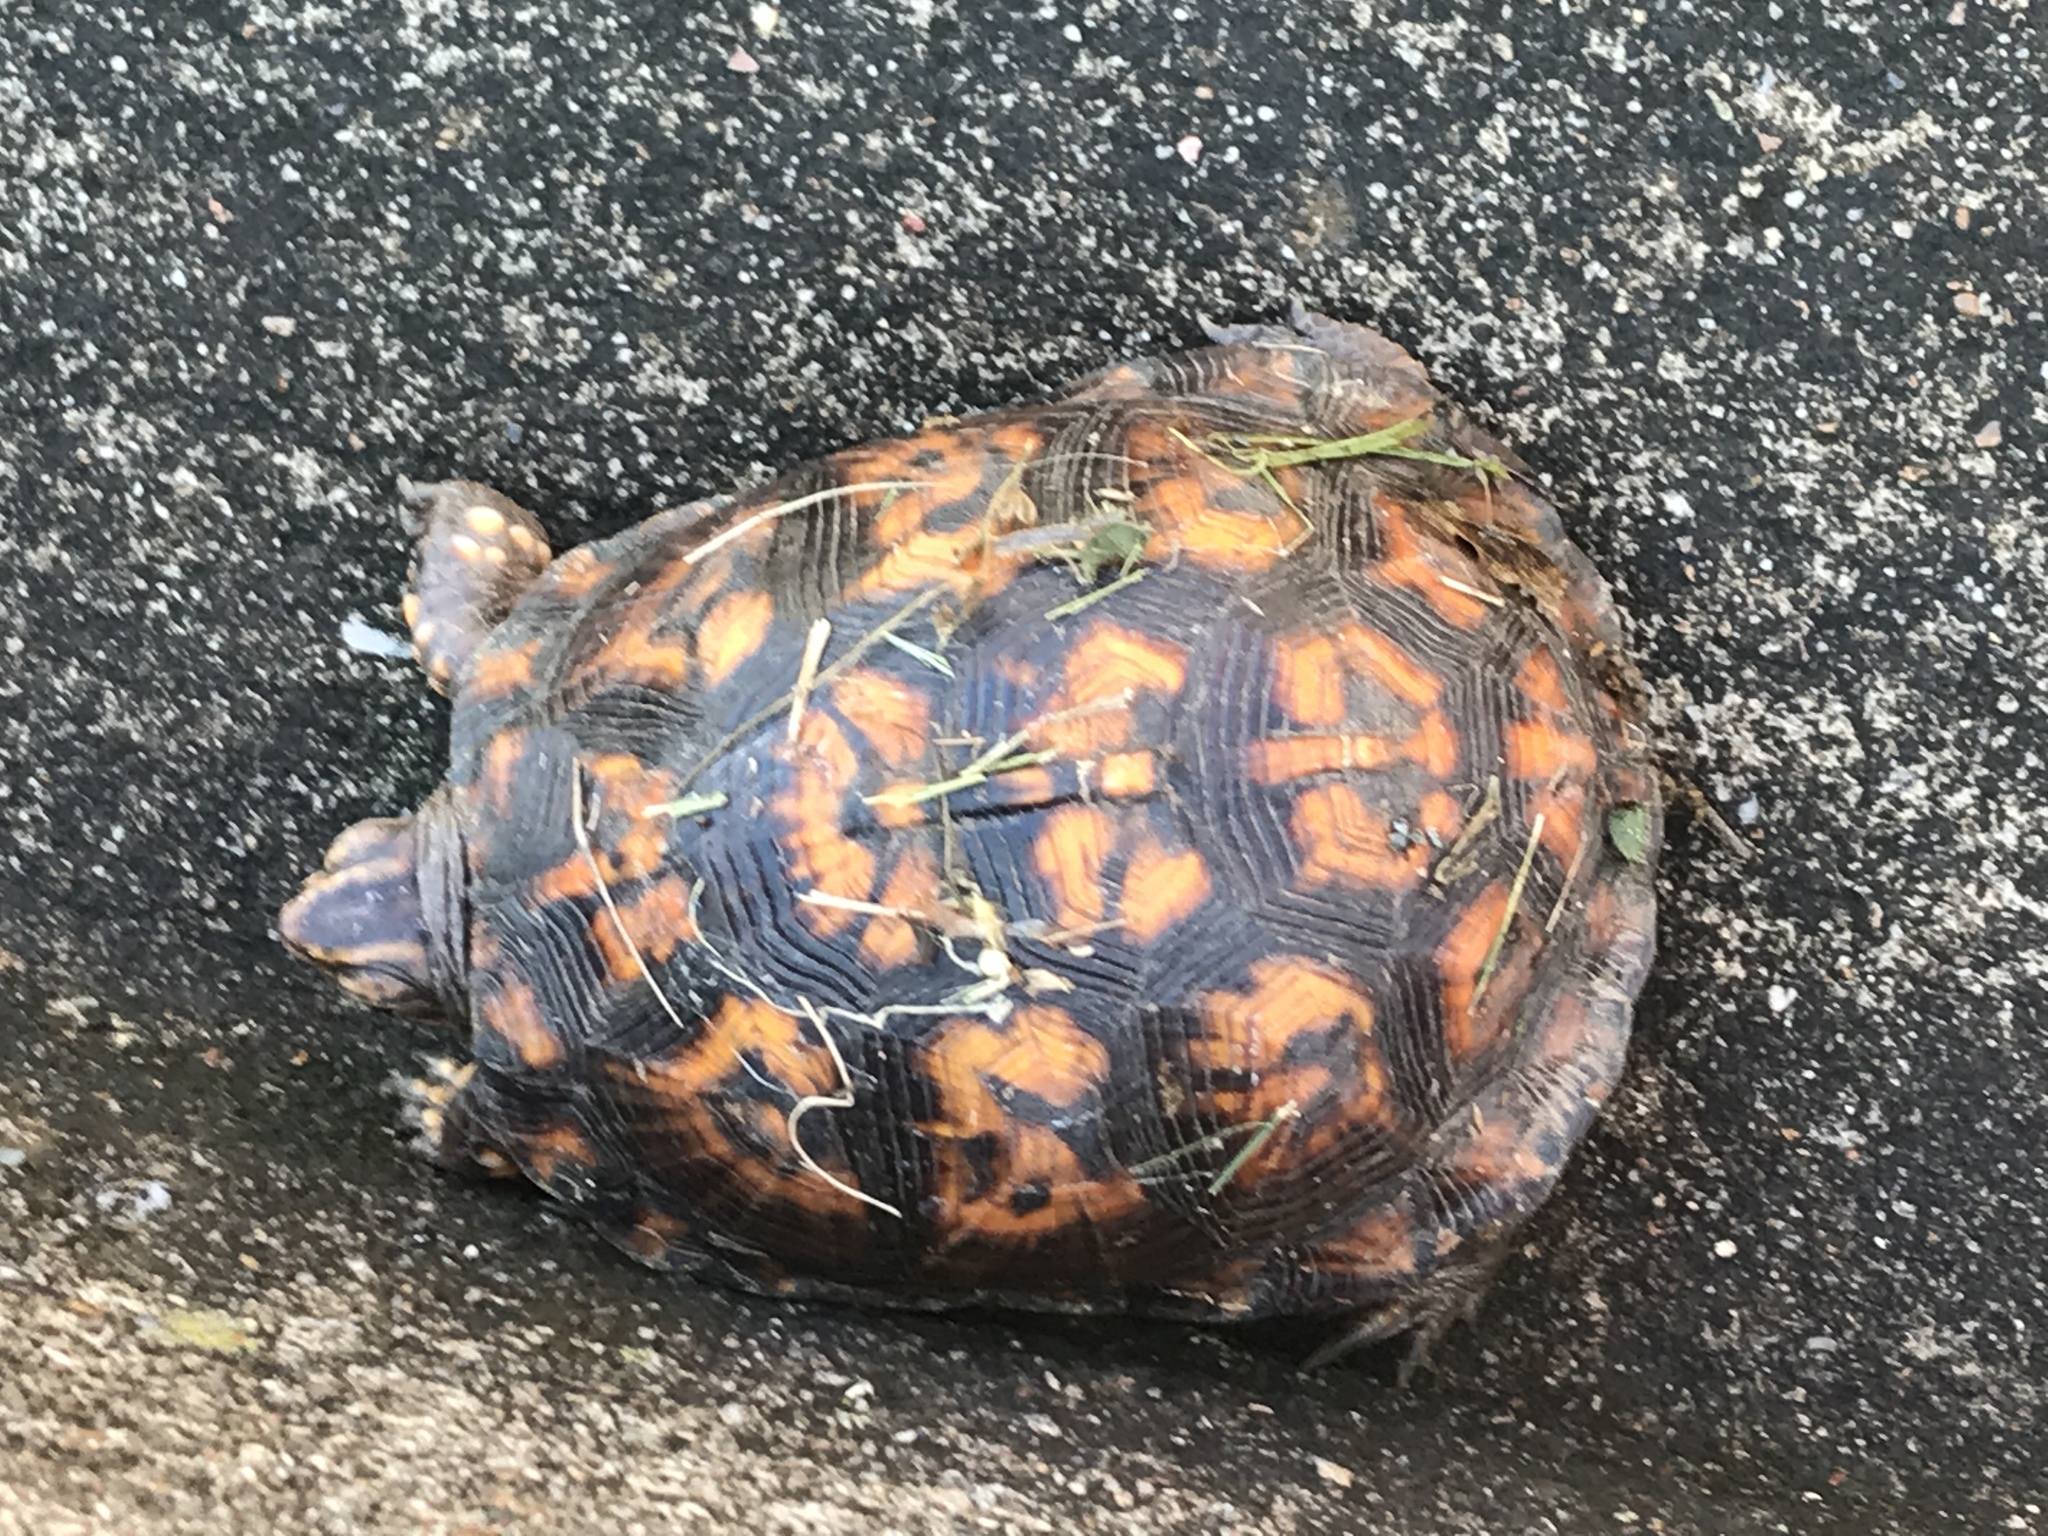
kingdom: Animalia
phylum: Chordata
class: Testudines
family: Emydidae
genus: Terrapene
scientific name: Terrapene carolina
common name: Common box turtle
